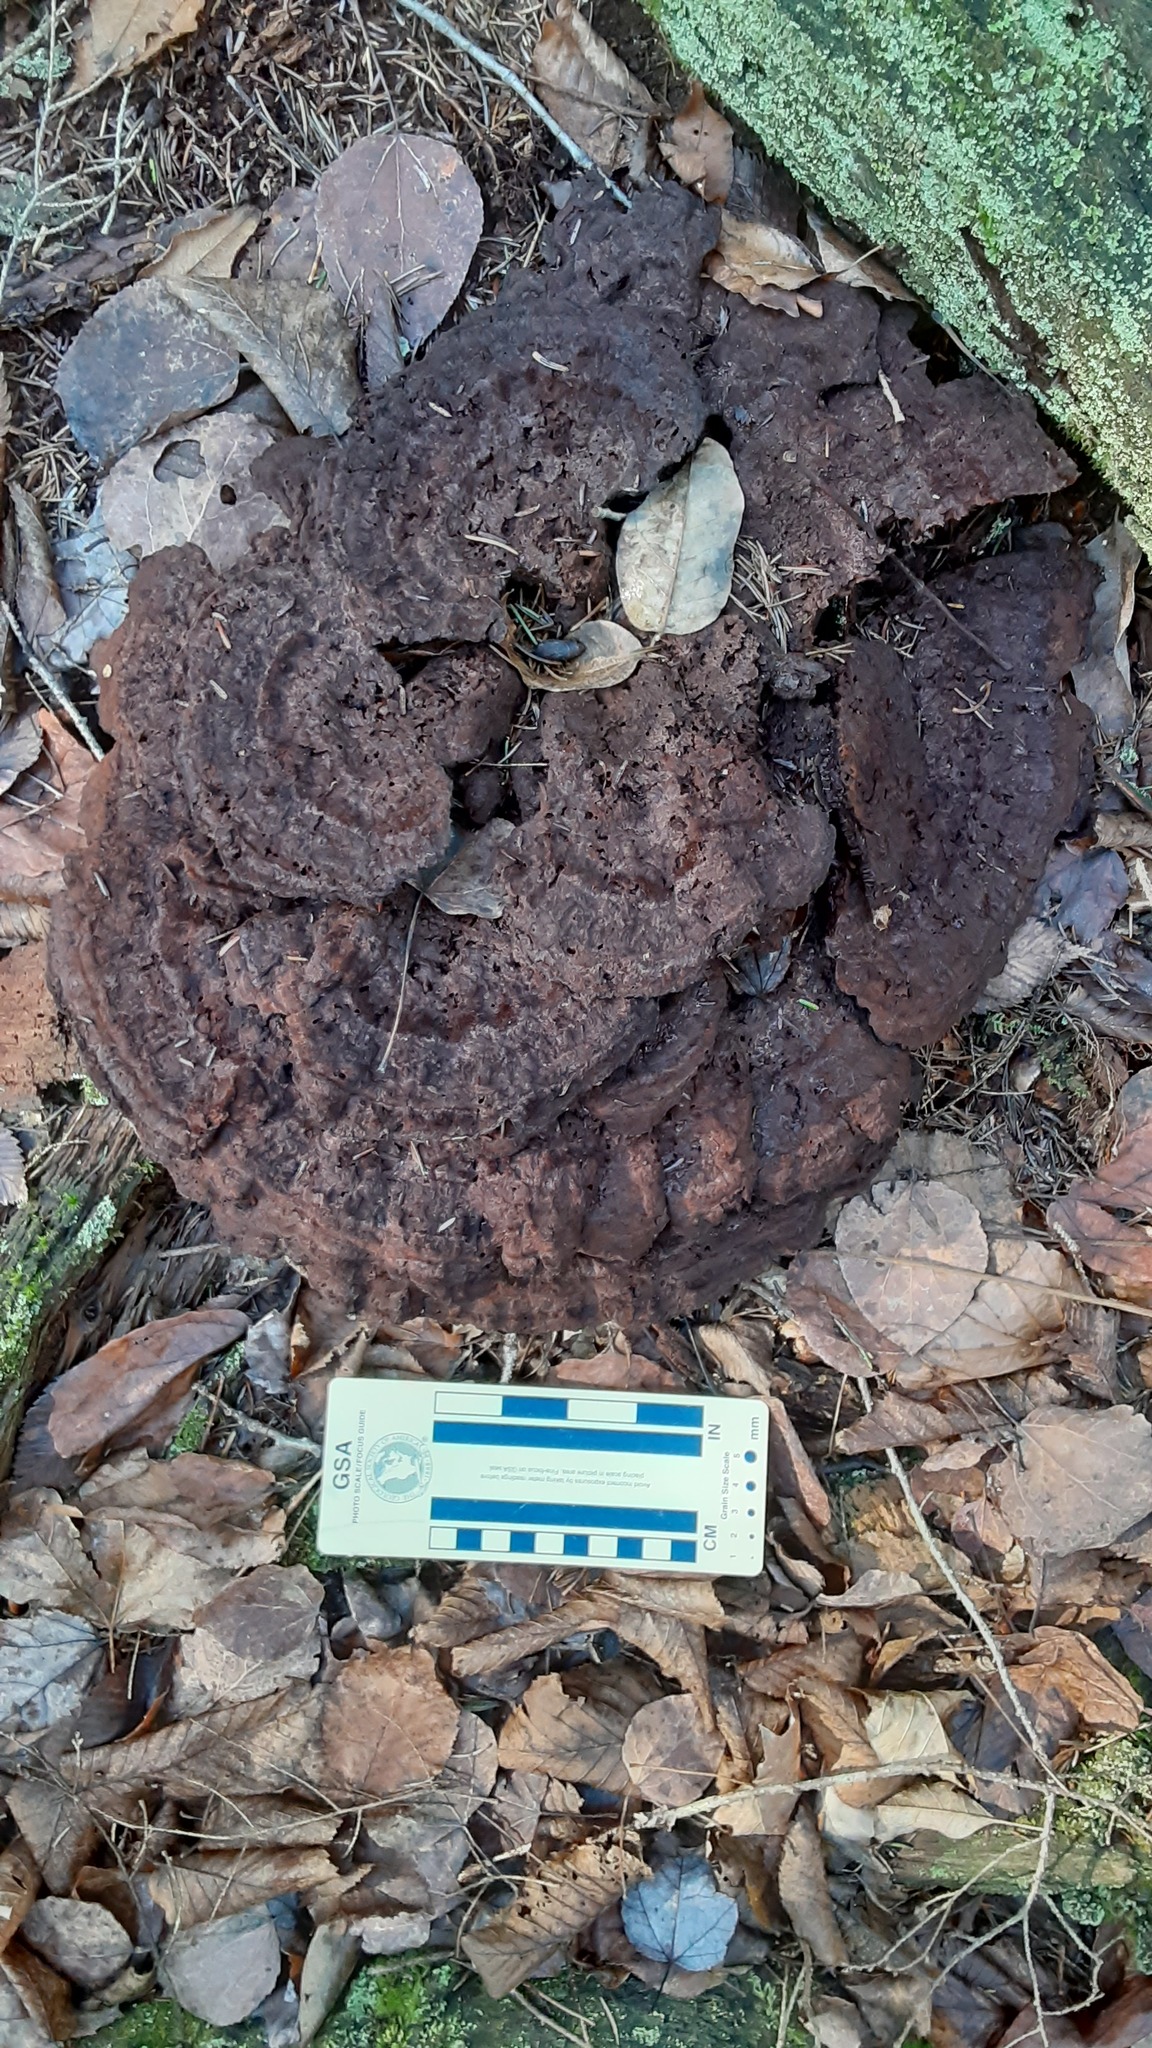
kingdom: Fungi
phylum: Basidiomycota
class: Agaricomycetes
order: Polyporales
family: Laetiporaceae
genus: Phaeolus
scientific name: Phaeolus schweinitzii
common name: Dyer's mazegill
